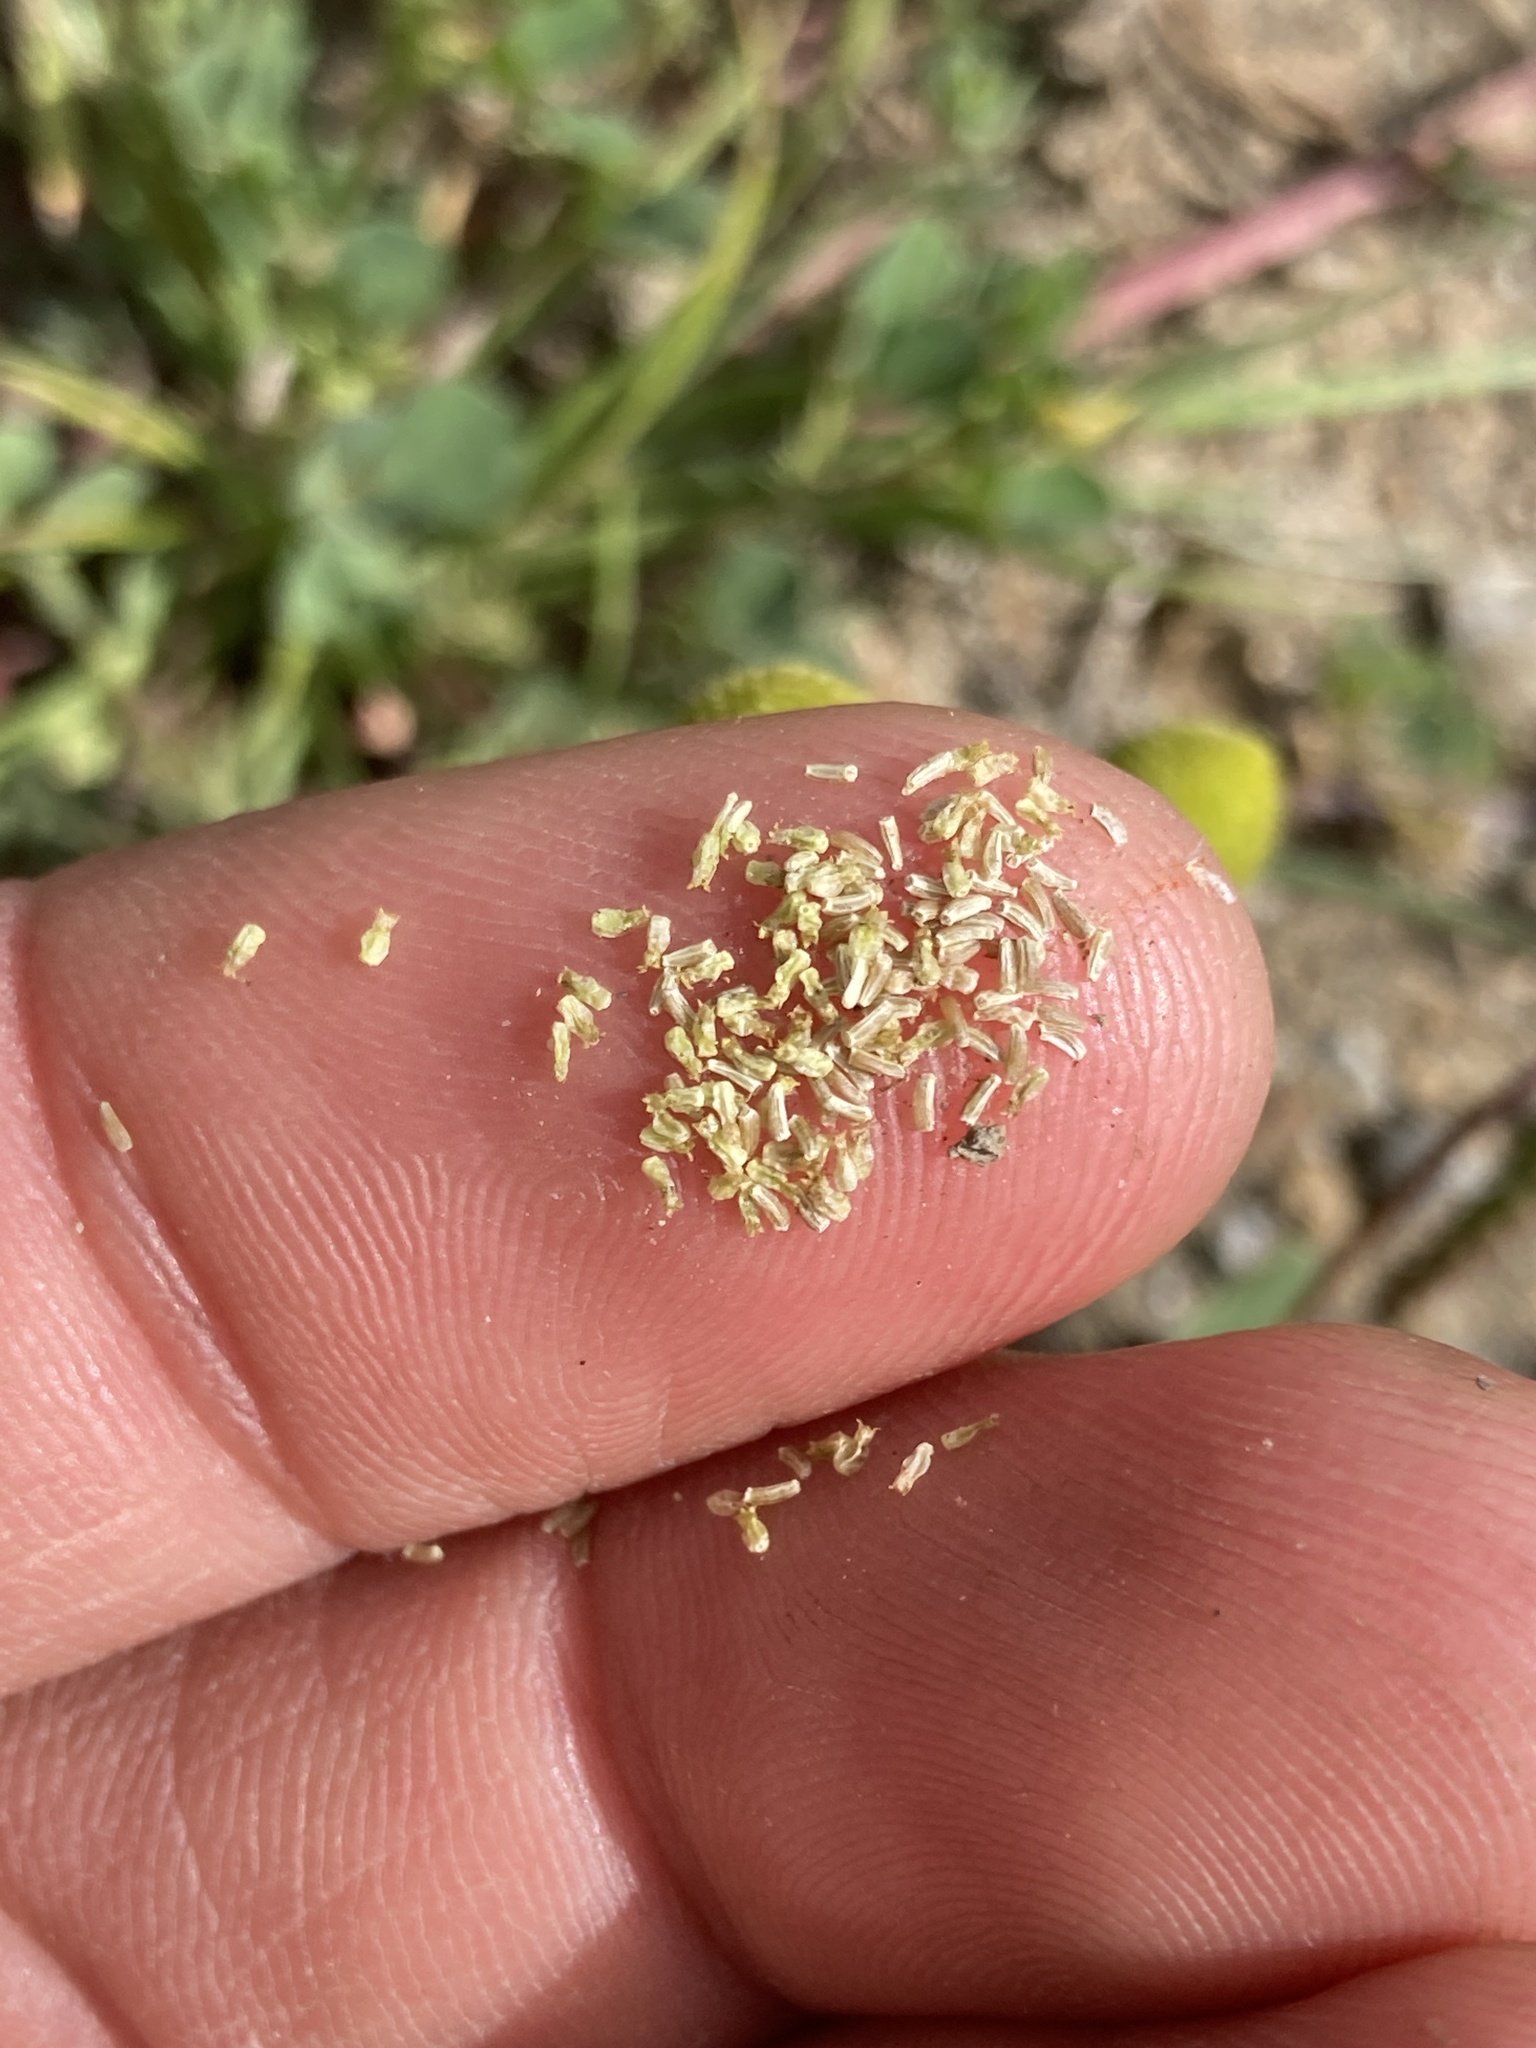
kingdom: Plantae
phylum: Tracheophyta
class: Magnoliopsida
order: Asterales
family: Asteraceae
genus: Matricaria
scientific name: Matricaria discoidea
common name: Disc mayweed
